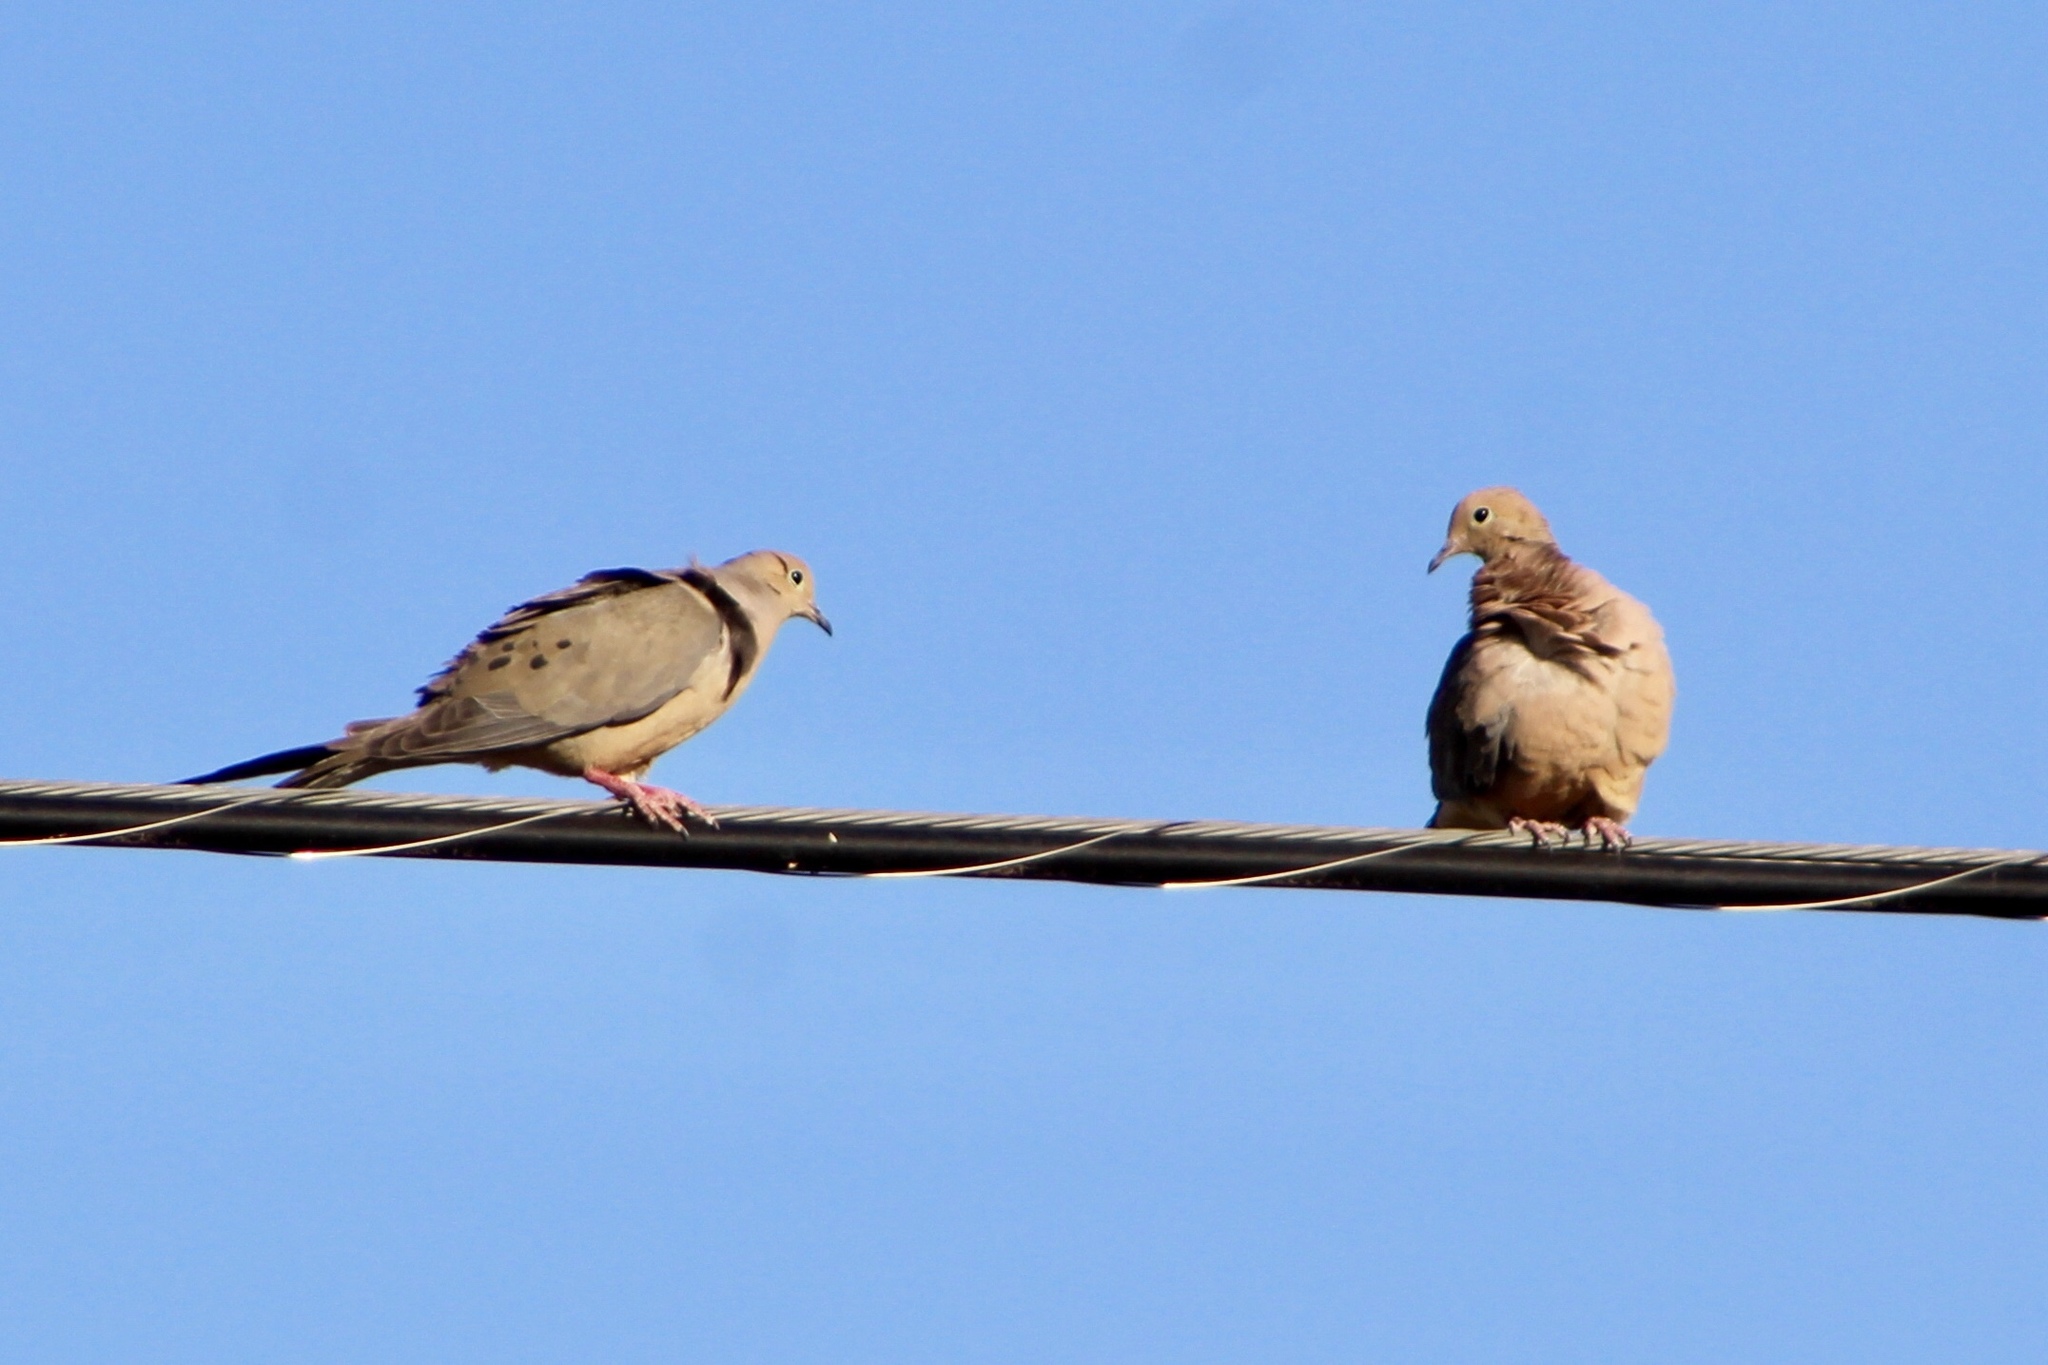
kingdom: Animalia
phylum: Chordata
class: Aves
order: Columbiformes
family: Columbidae
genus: Zenaida
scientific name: Zenaida macroura
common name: Mourning dove
